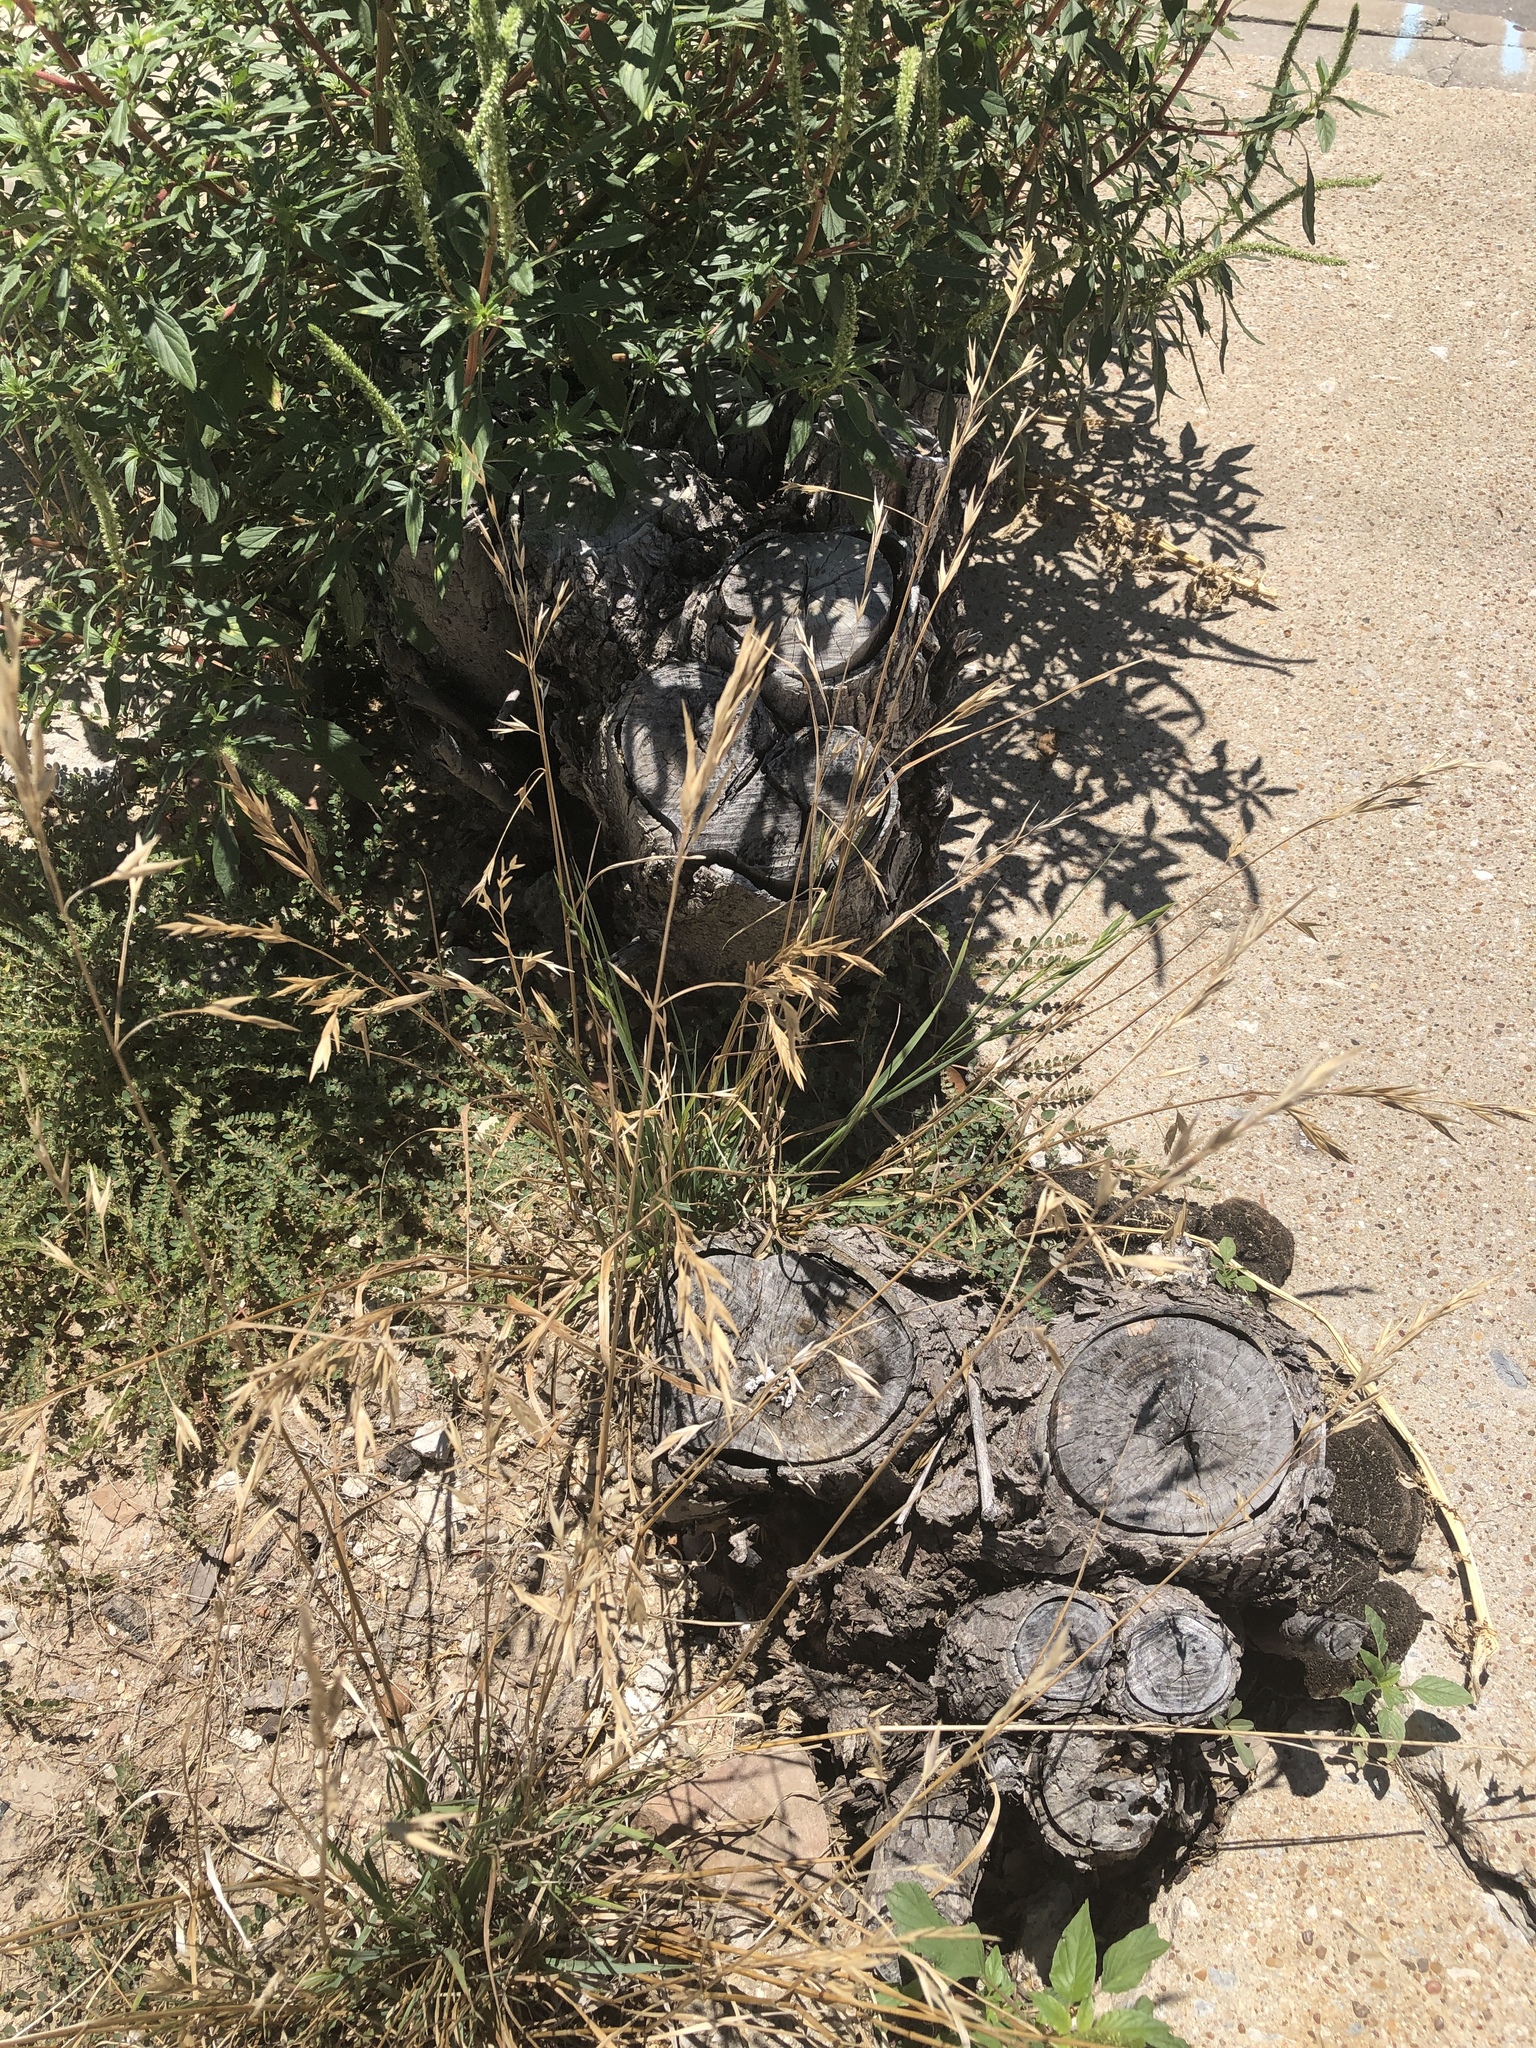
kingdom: Plantae
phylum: Tracheophyta
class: Liliopsida
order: Poales
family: Poaceae
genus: Bromus
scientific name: Bromus catharticus
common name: Rescuegrass
